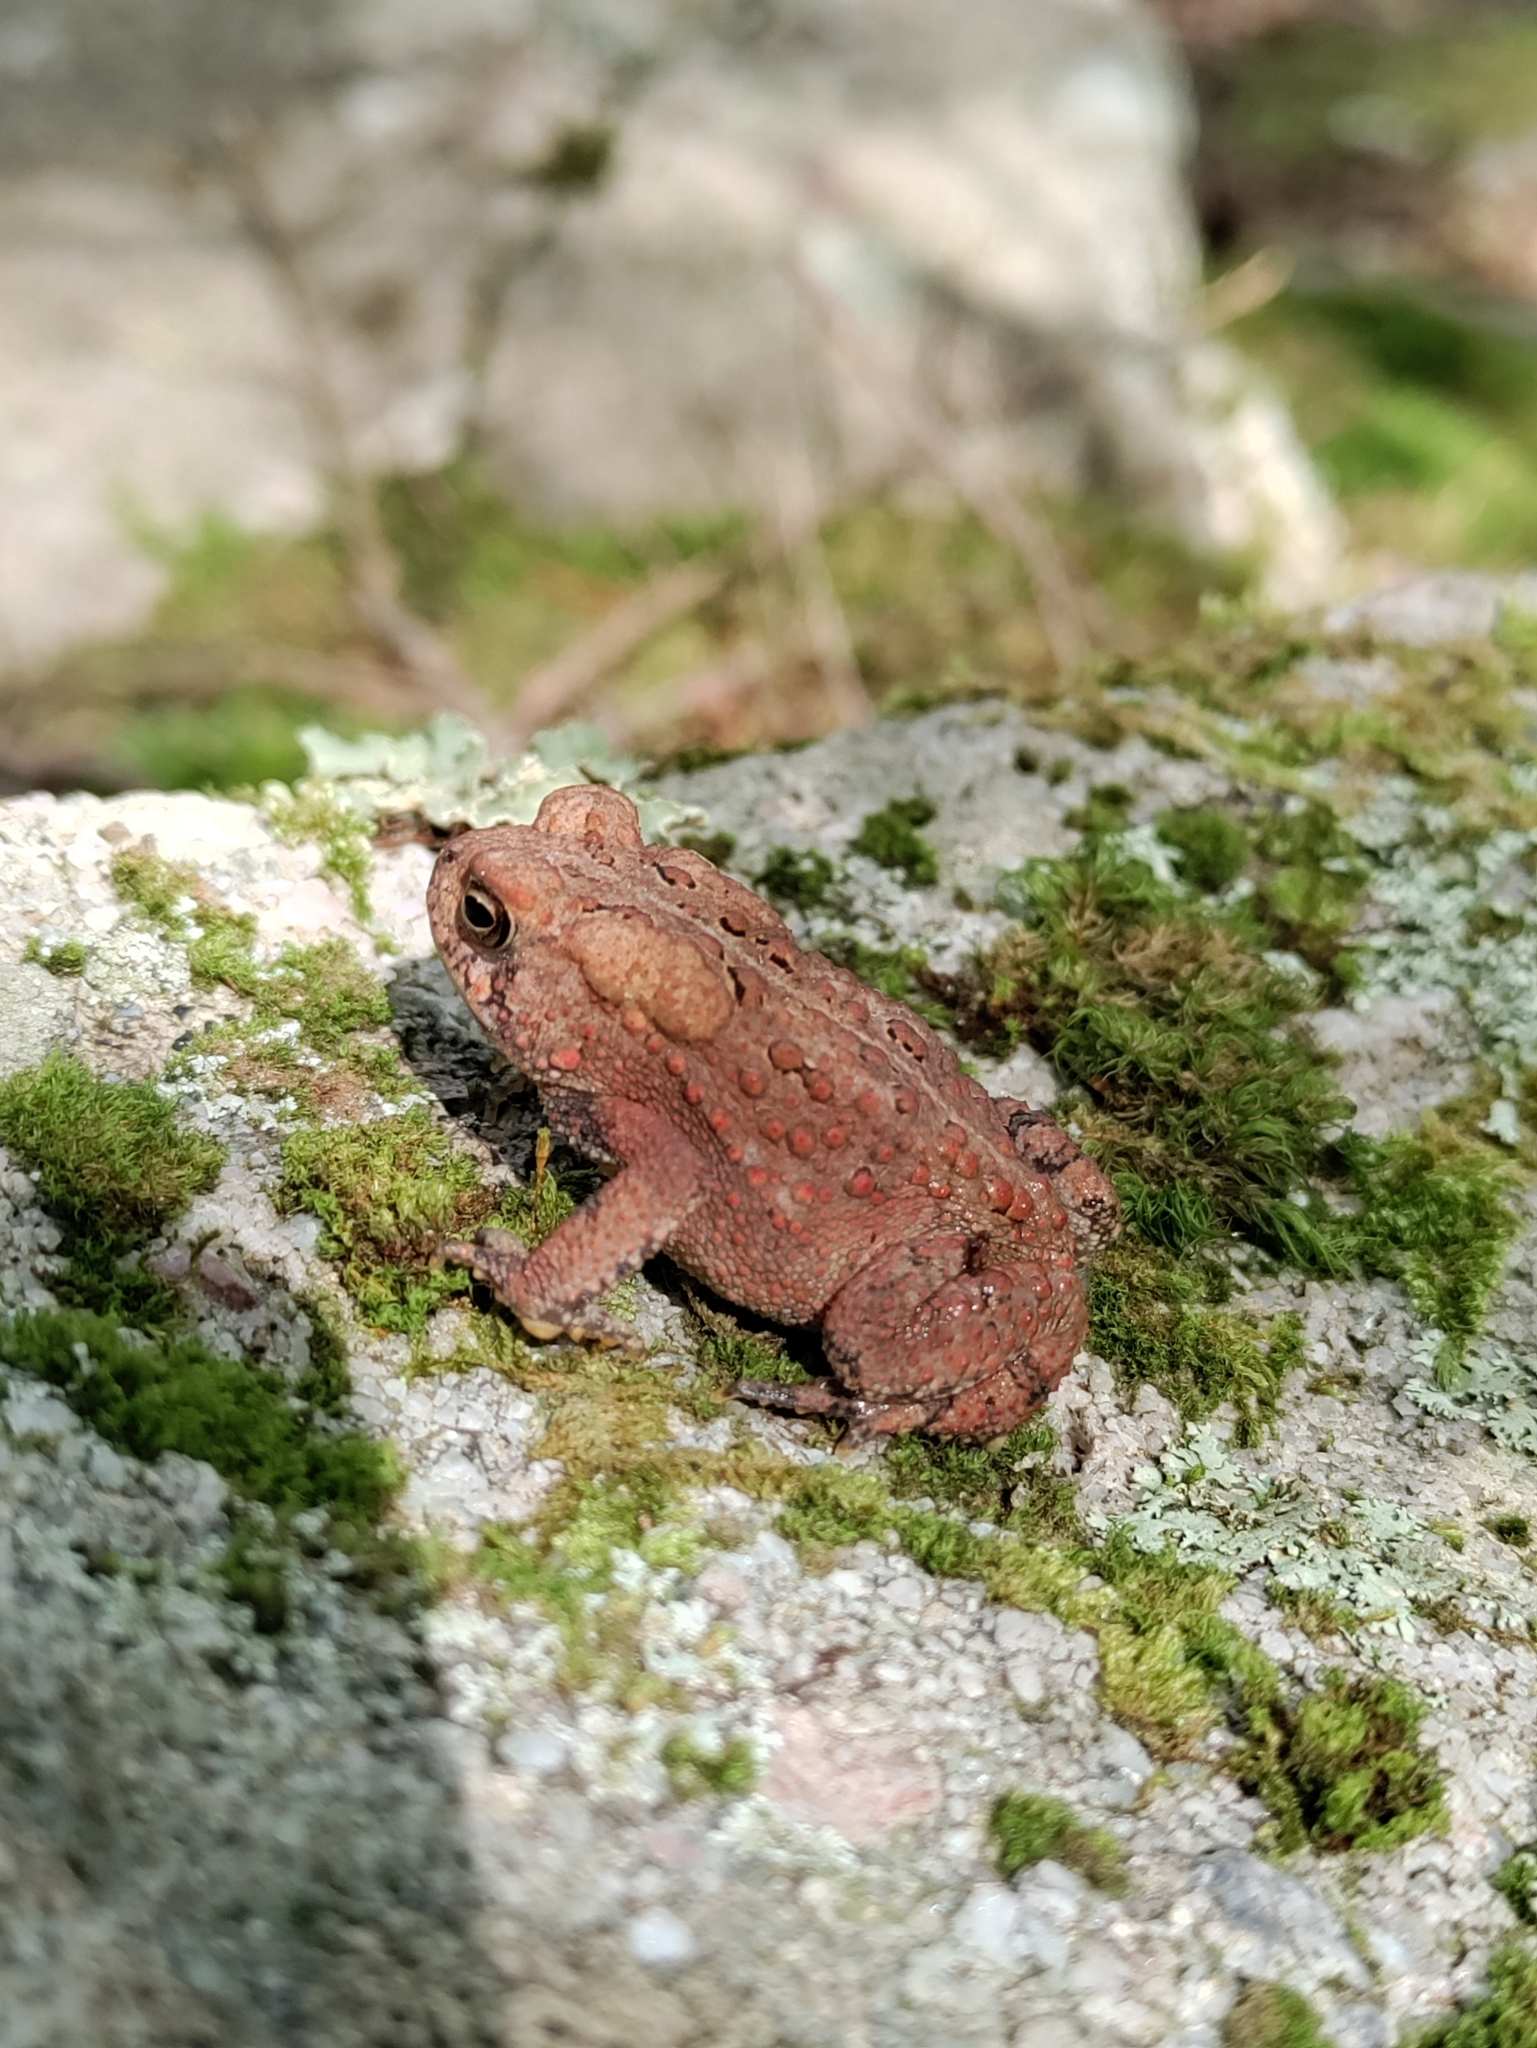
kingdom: Animalia
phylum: Chordata
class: Amphibia
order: Anura
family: Bufonidae
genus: Anaxyrus
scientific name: Anaxyrus americanus
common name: American toad
